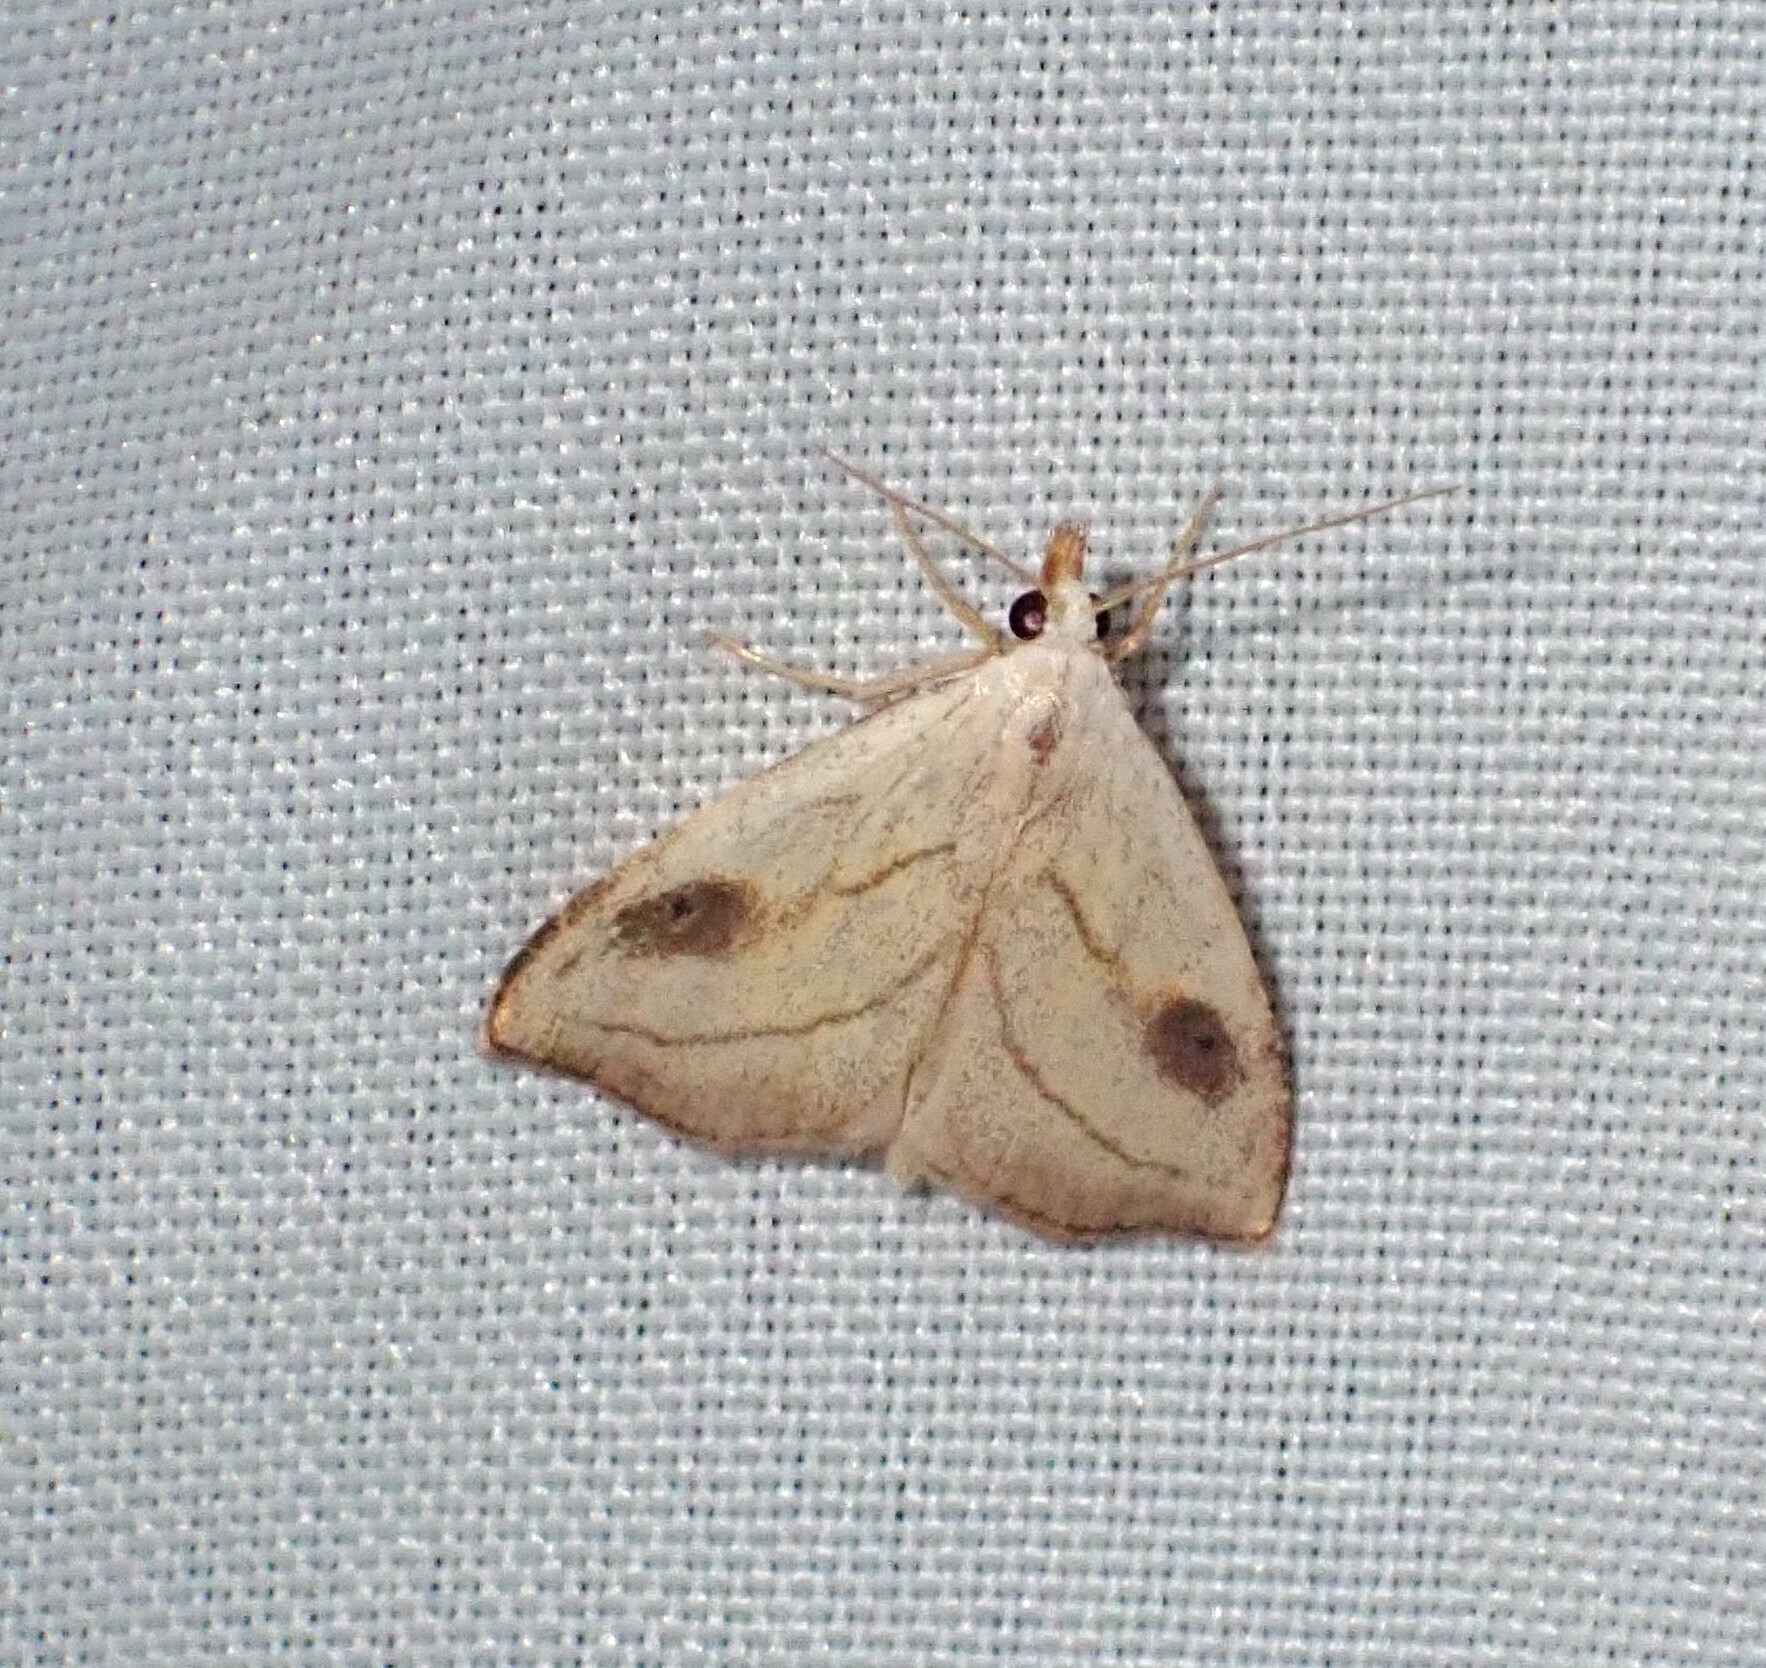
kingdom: Animalia
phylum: Arthropoda
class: Insecta
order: Lepidoptera
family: Erebidae
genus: Rivula
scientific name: Rivula propinqualis
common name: Spotted grass moth
